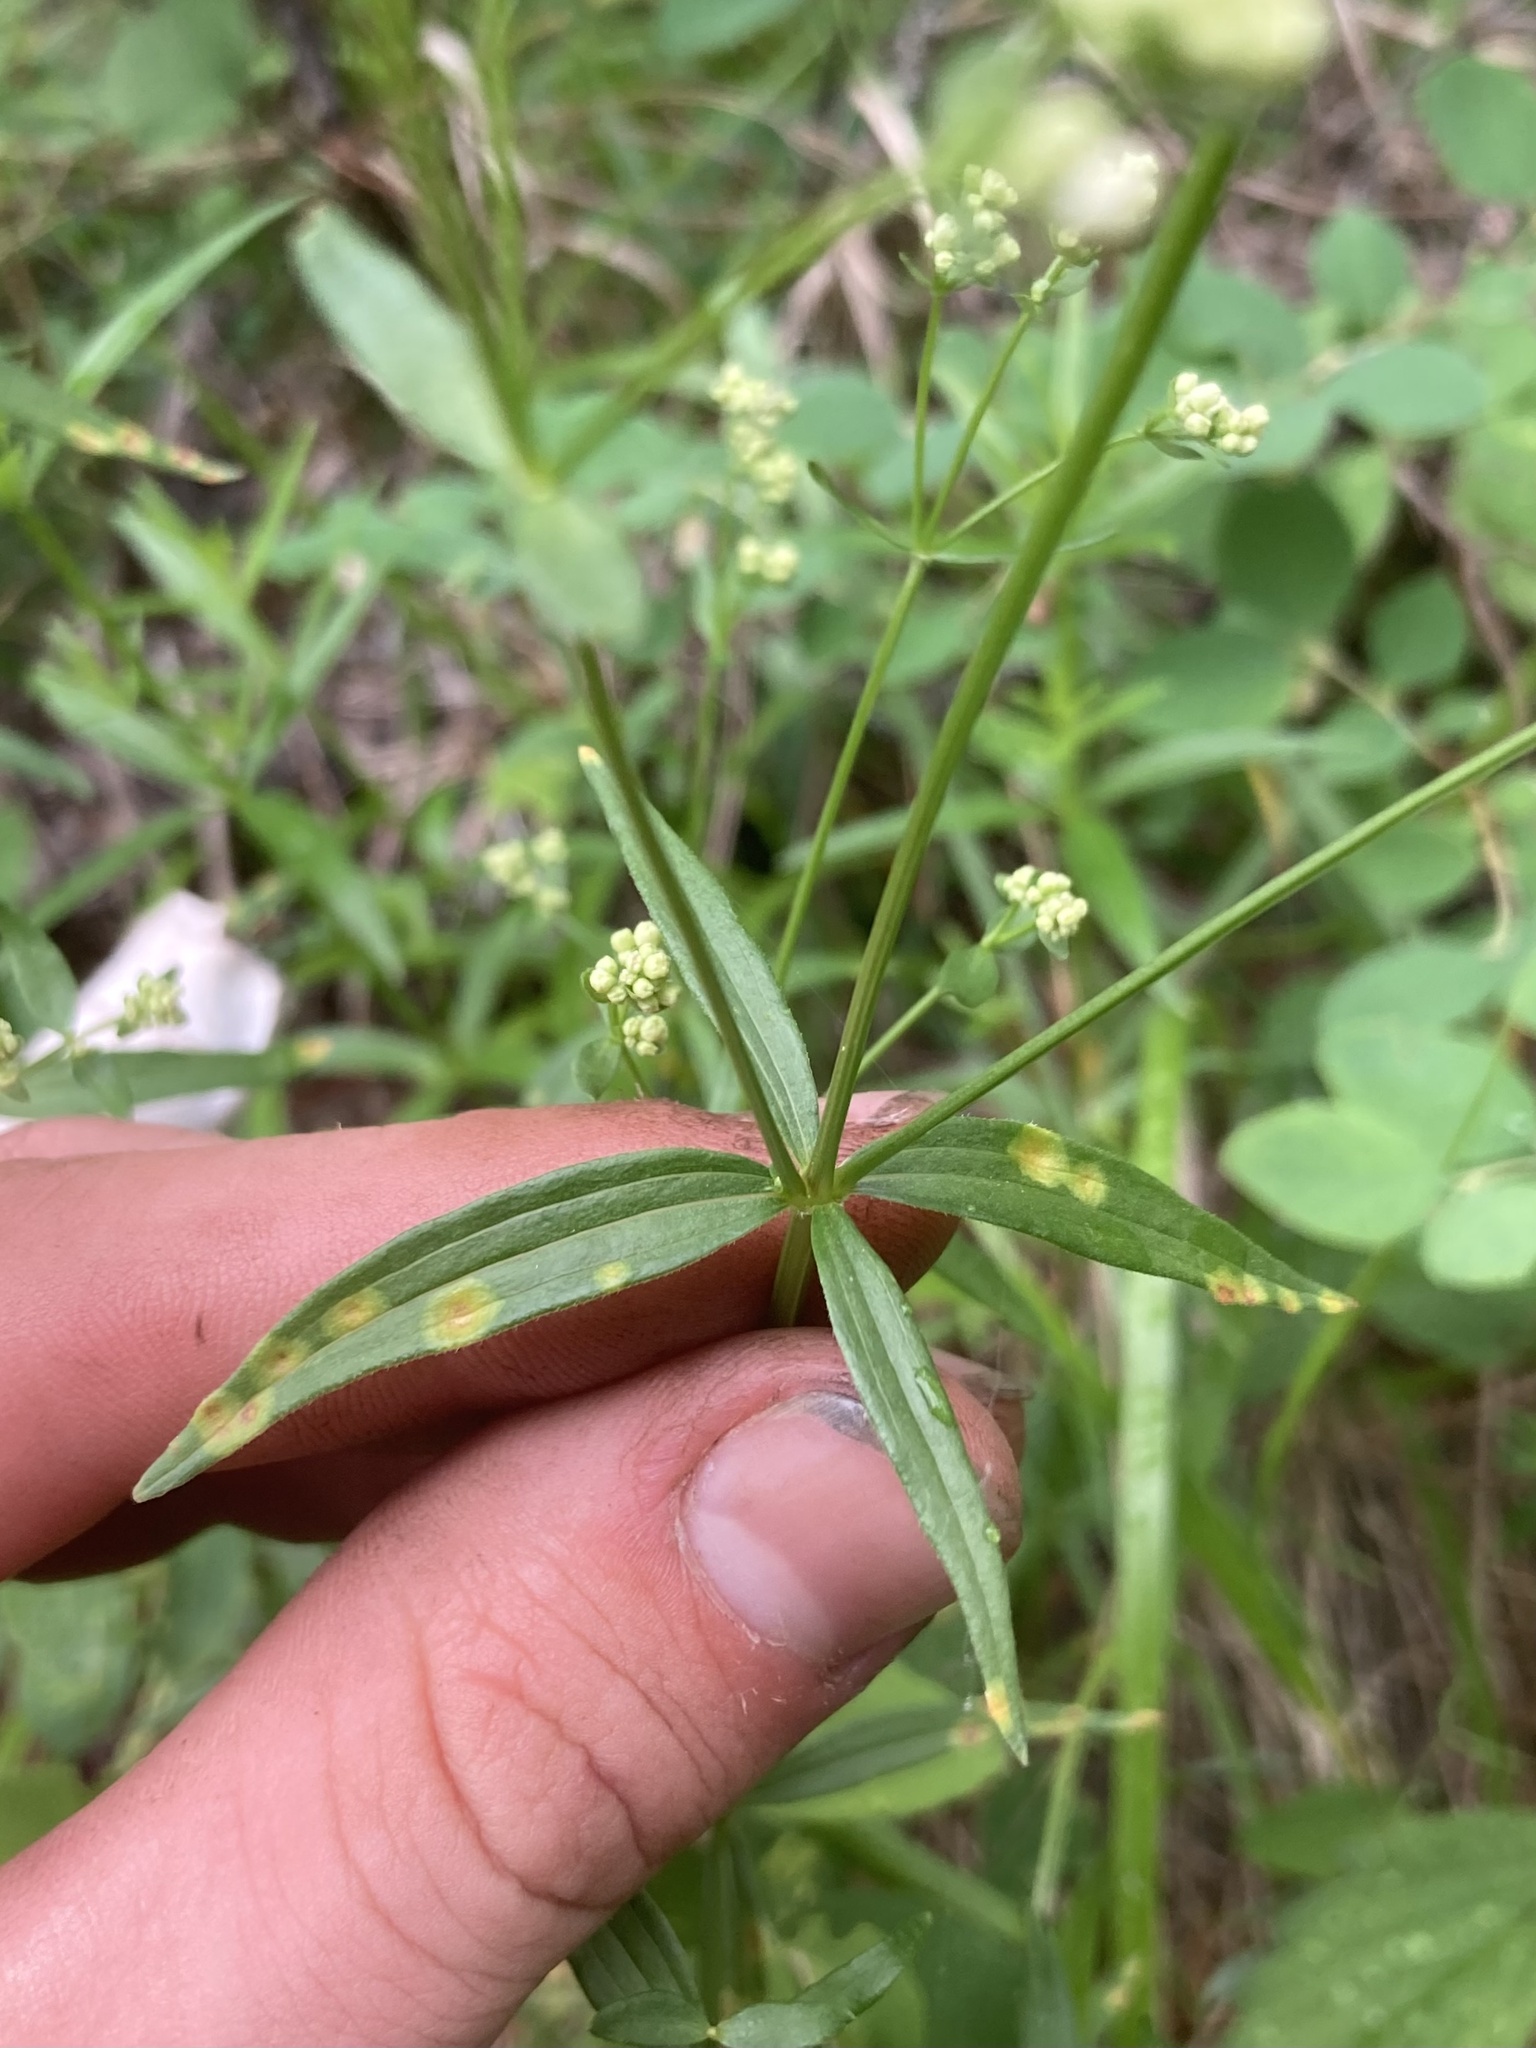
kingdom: Plantae
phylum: Tracheophyta
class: Magnoliopsida
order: Gentianales
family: Rubiaceae
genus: Galium
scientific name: Galium boreale
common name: Northern bedstraw
